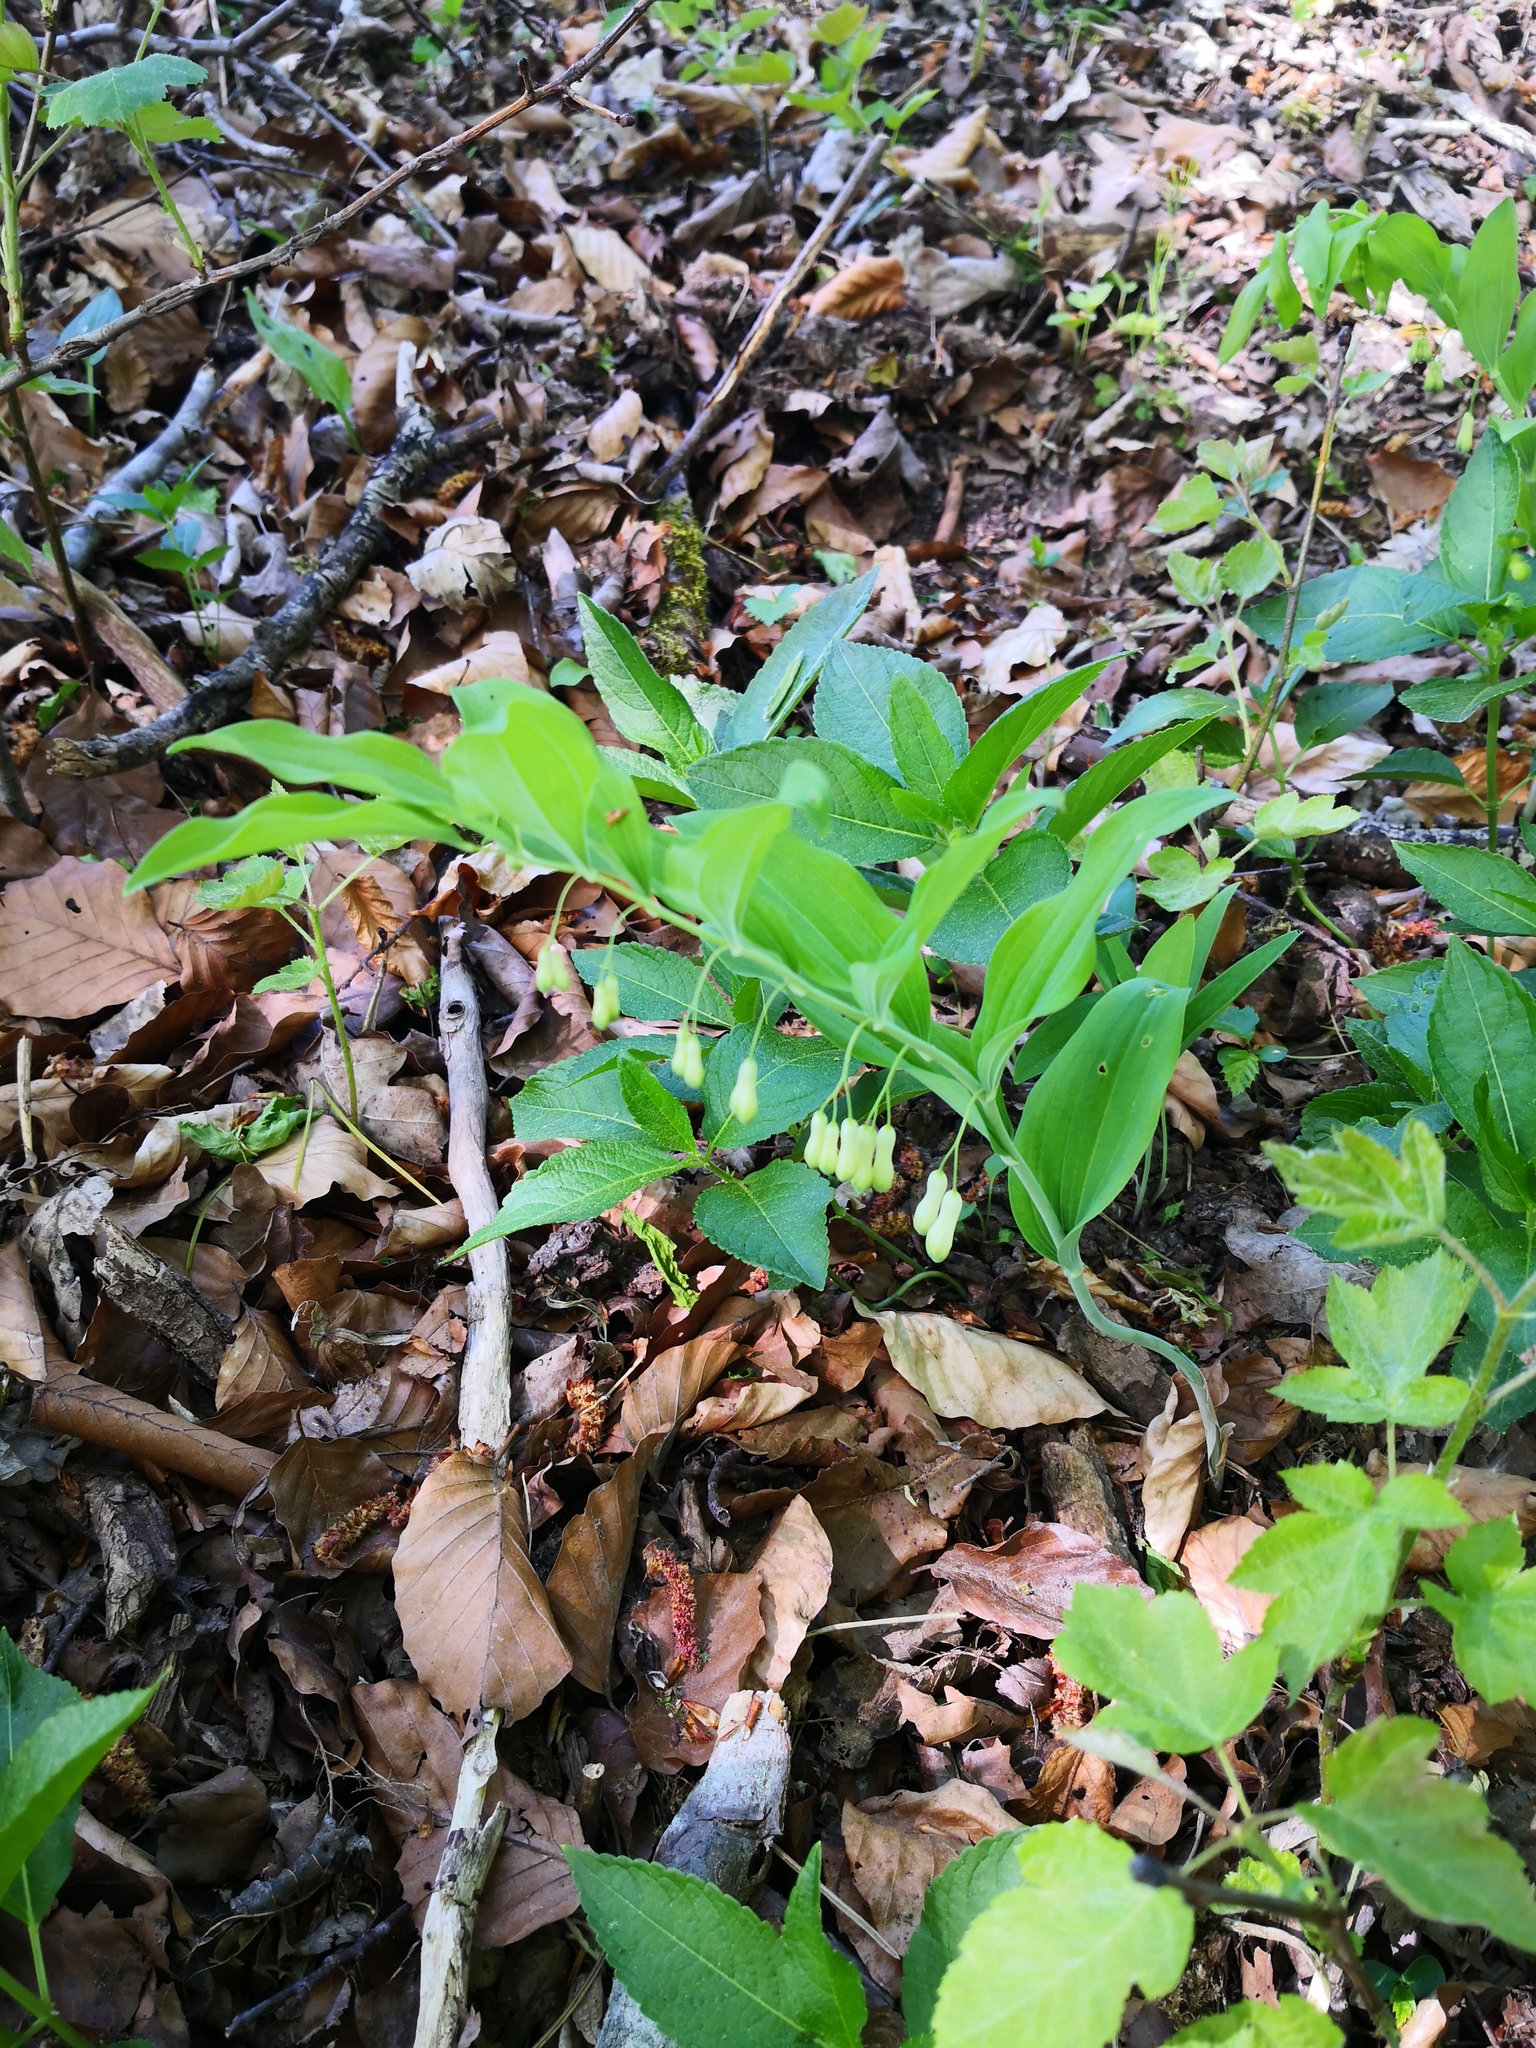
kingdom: Plantae
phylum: Tracheophyta
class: Liliopsida
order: Asparagales
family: Asparagaceae
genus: Polygonatum
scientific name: Polygonatum multiflorum
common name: Solomon's-seal
